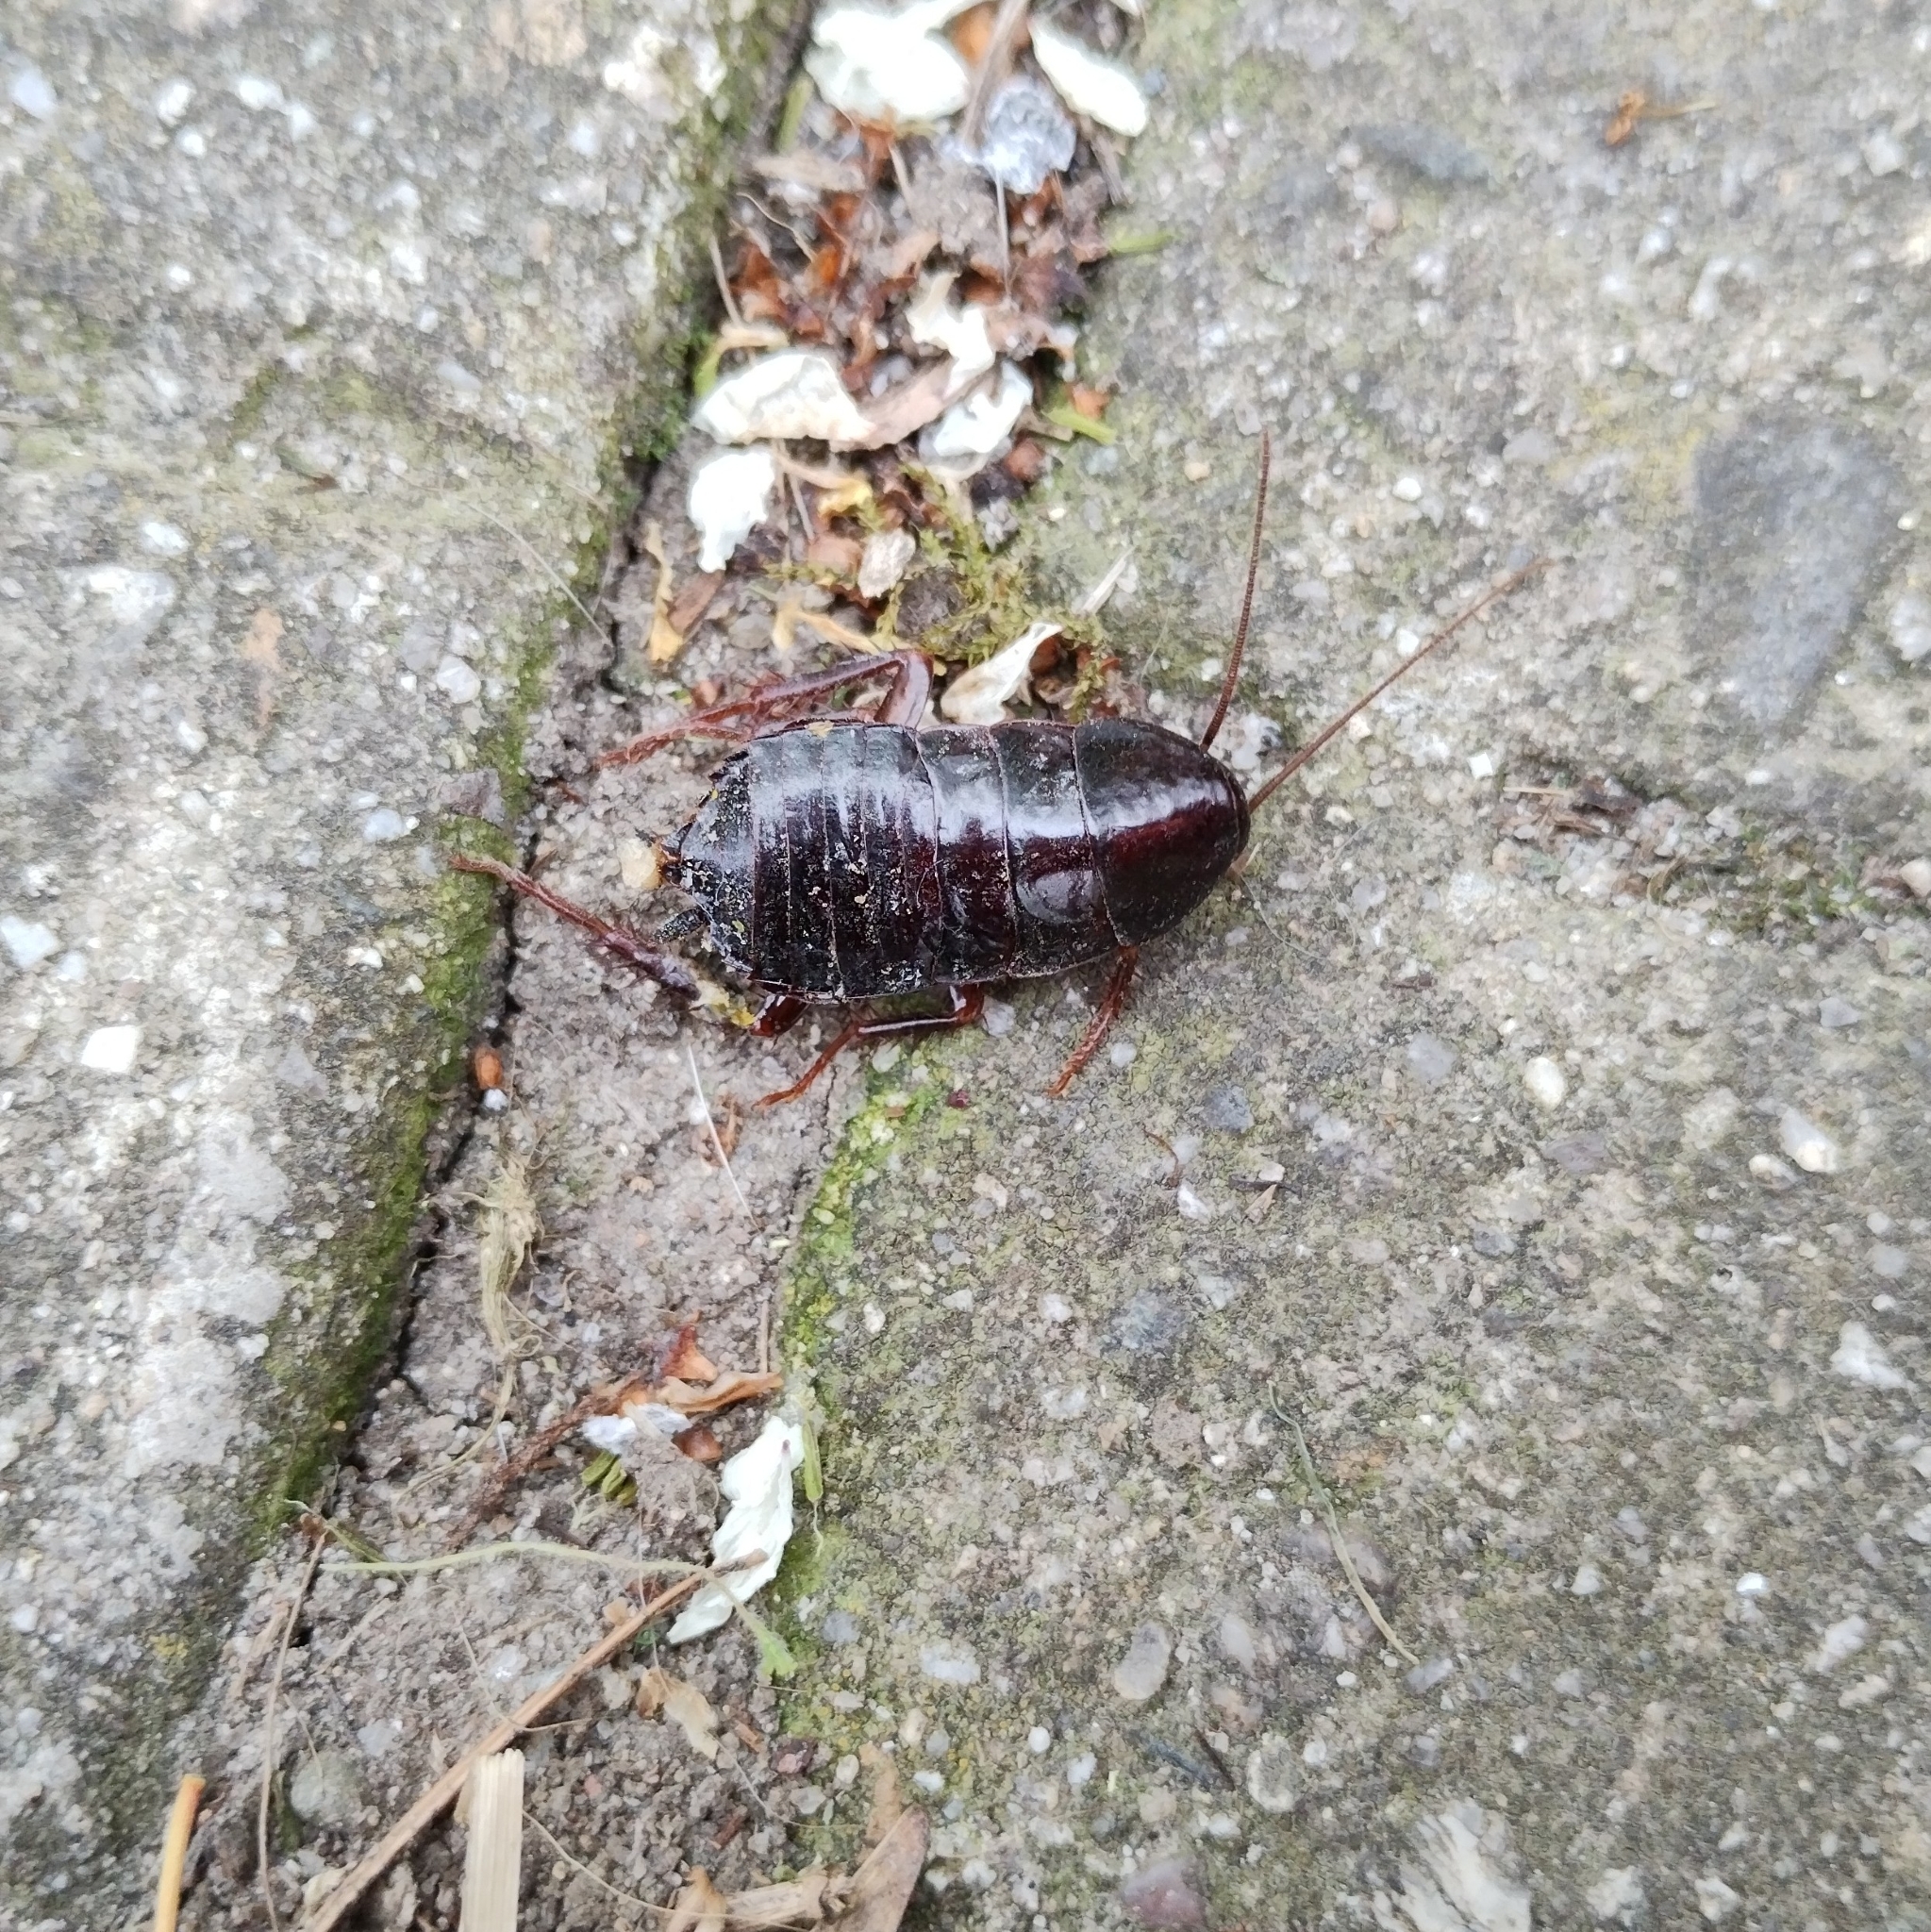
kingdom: Animalia
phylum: Arthropoda
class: Insecta
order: Blattodea
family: Blattidae
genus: Blatta
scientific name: Blatta orientalis
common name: Oriental cockroach
